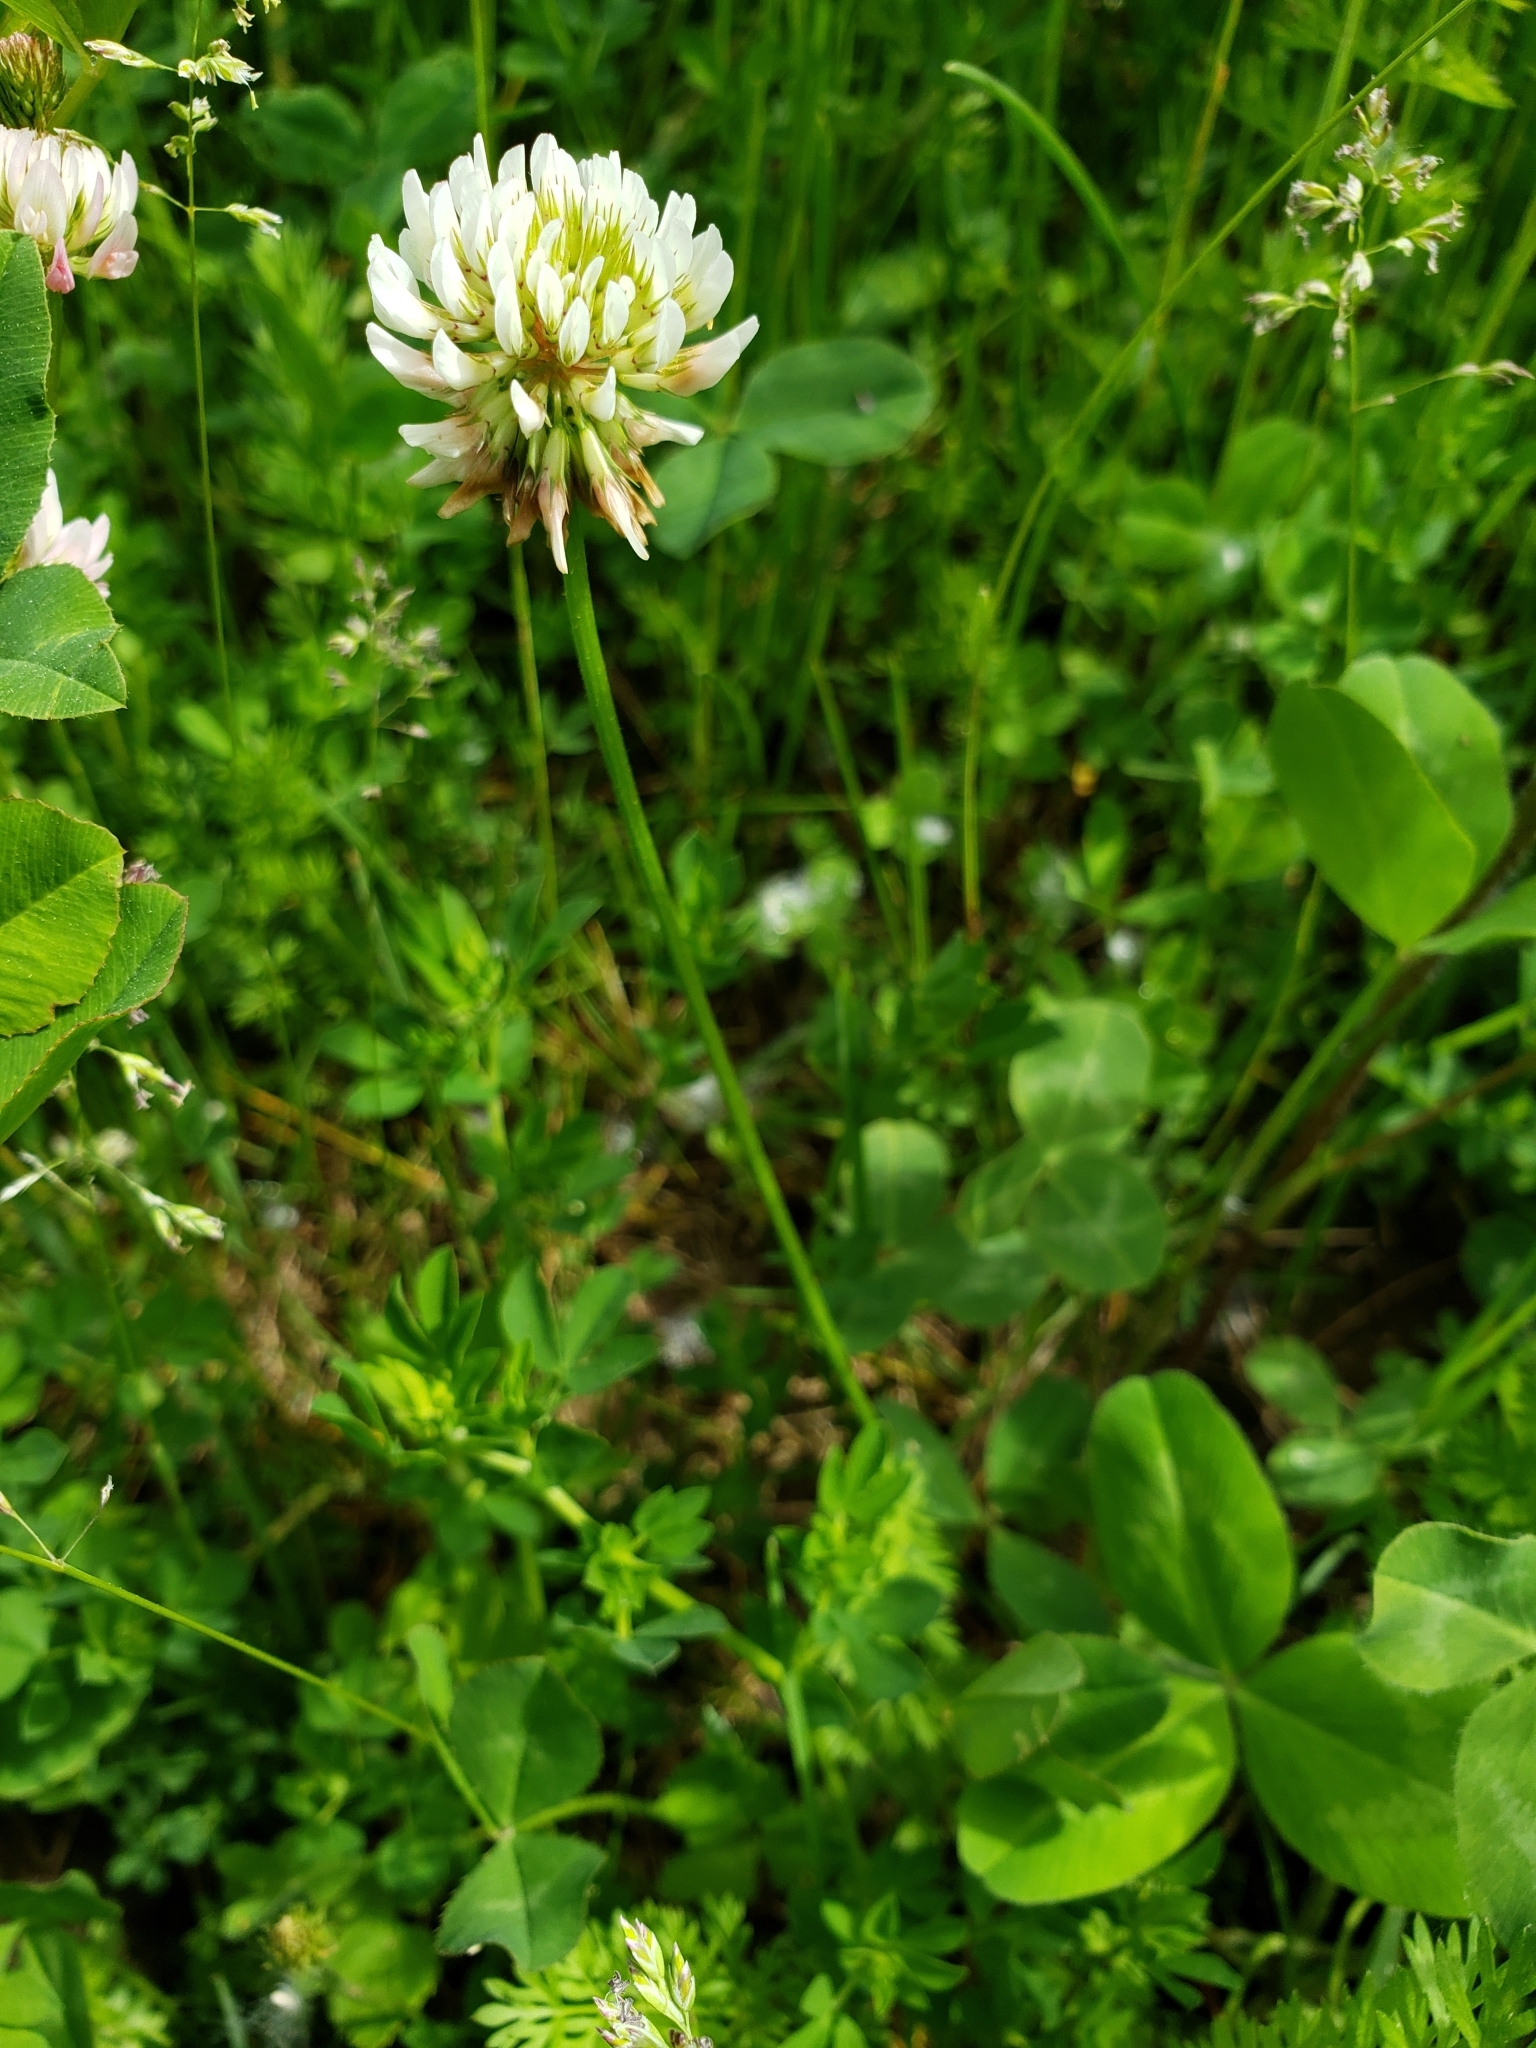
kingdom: Plantae
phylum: Tracheophyta
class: Magnoliopsida
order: Fabales
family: Fabaceae
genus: Trifolium
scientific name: Trifolium repens
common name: White clover
